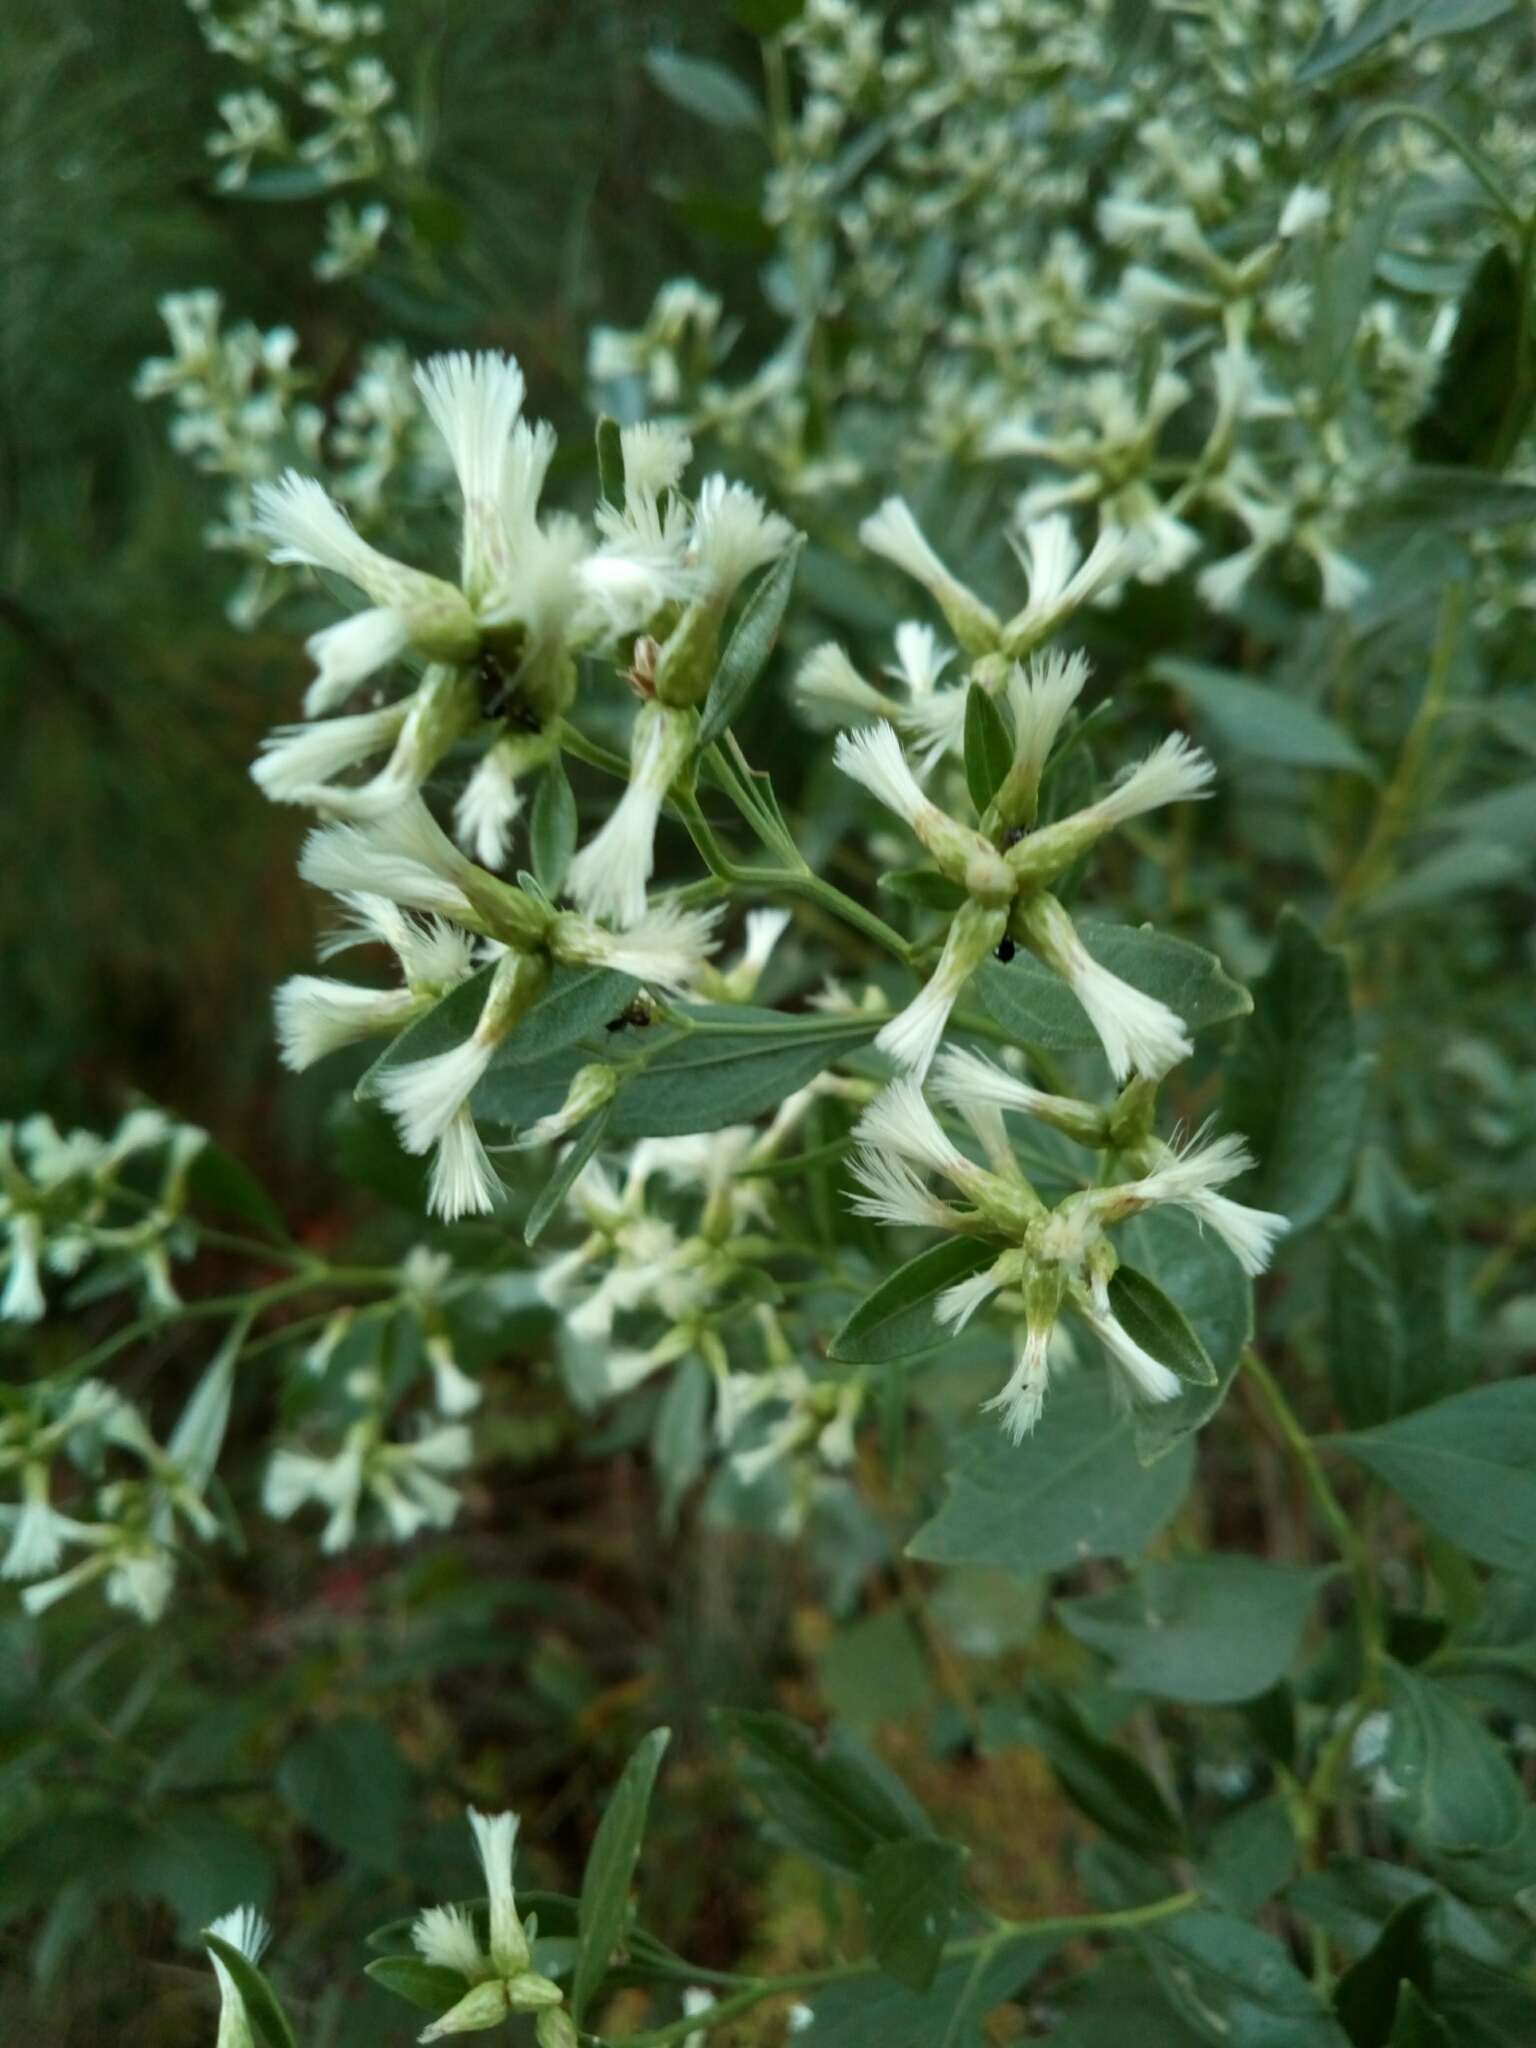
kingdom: Plantae
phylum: Tracheophyta
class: Magnoliopsida
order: Asterales
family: Asteraceae
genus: Baccharis
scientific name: Baccharis halimifolia
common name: Eastern baccharis
